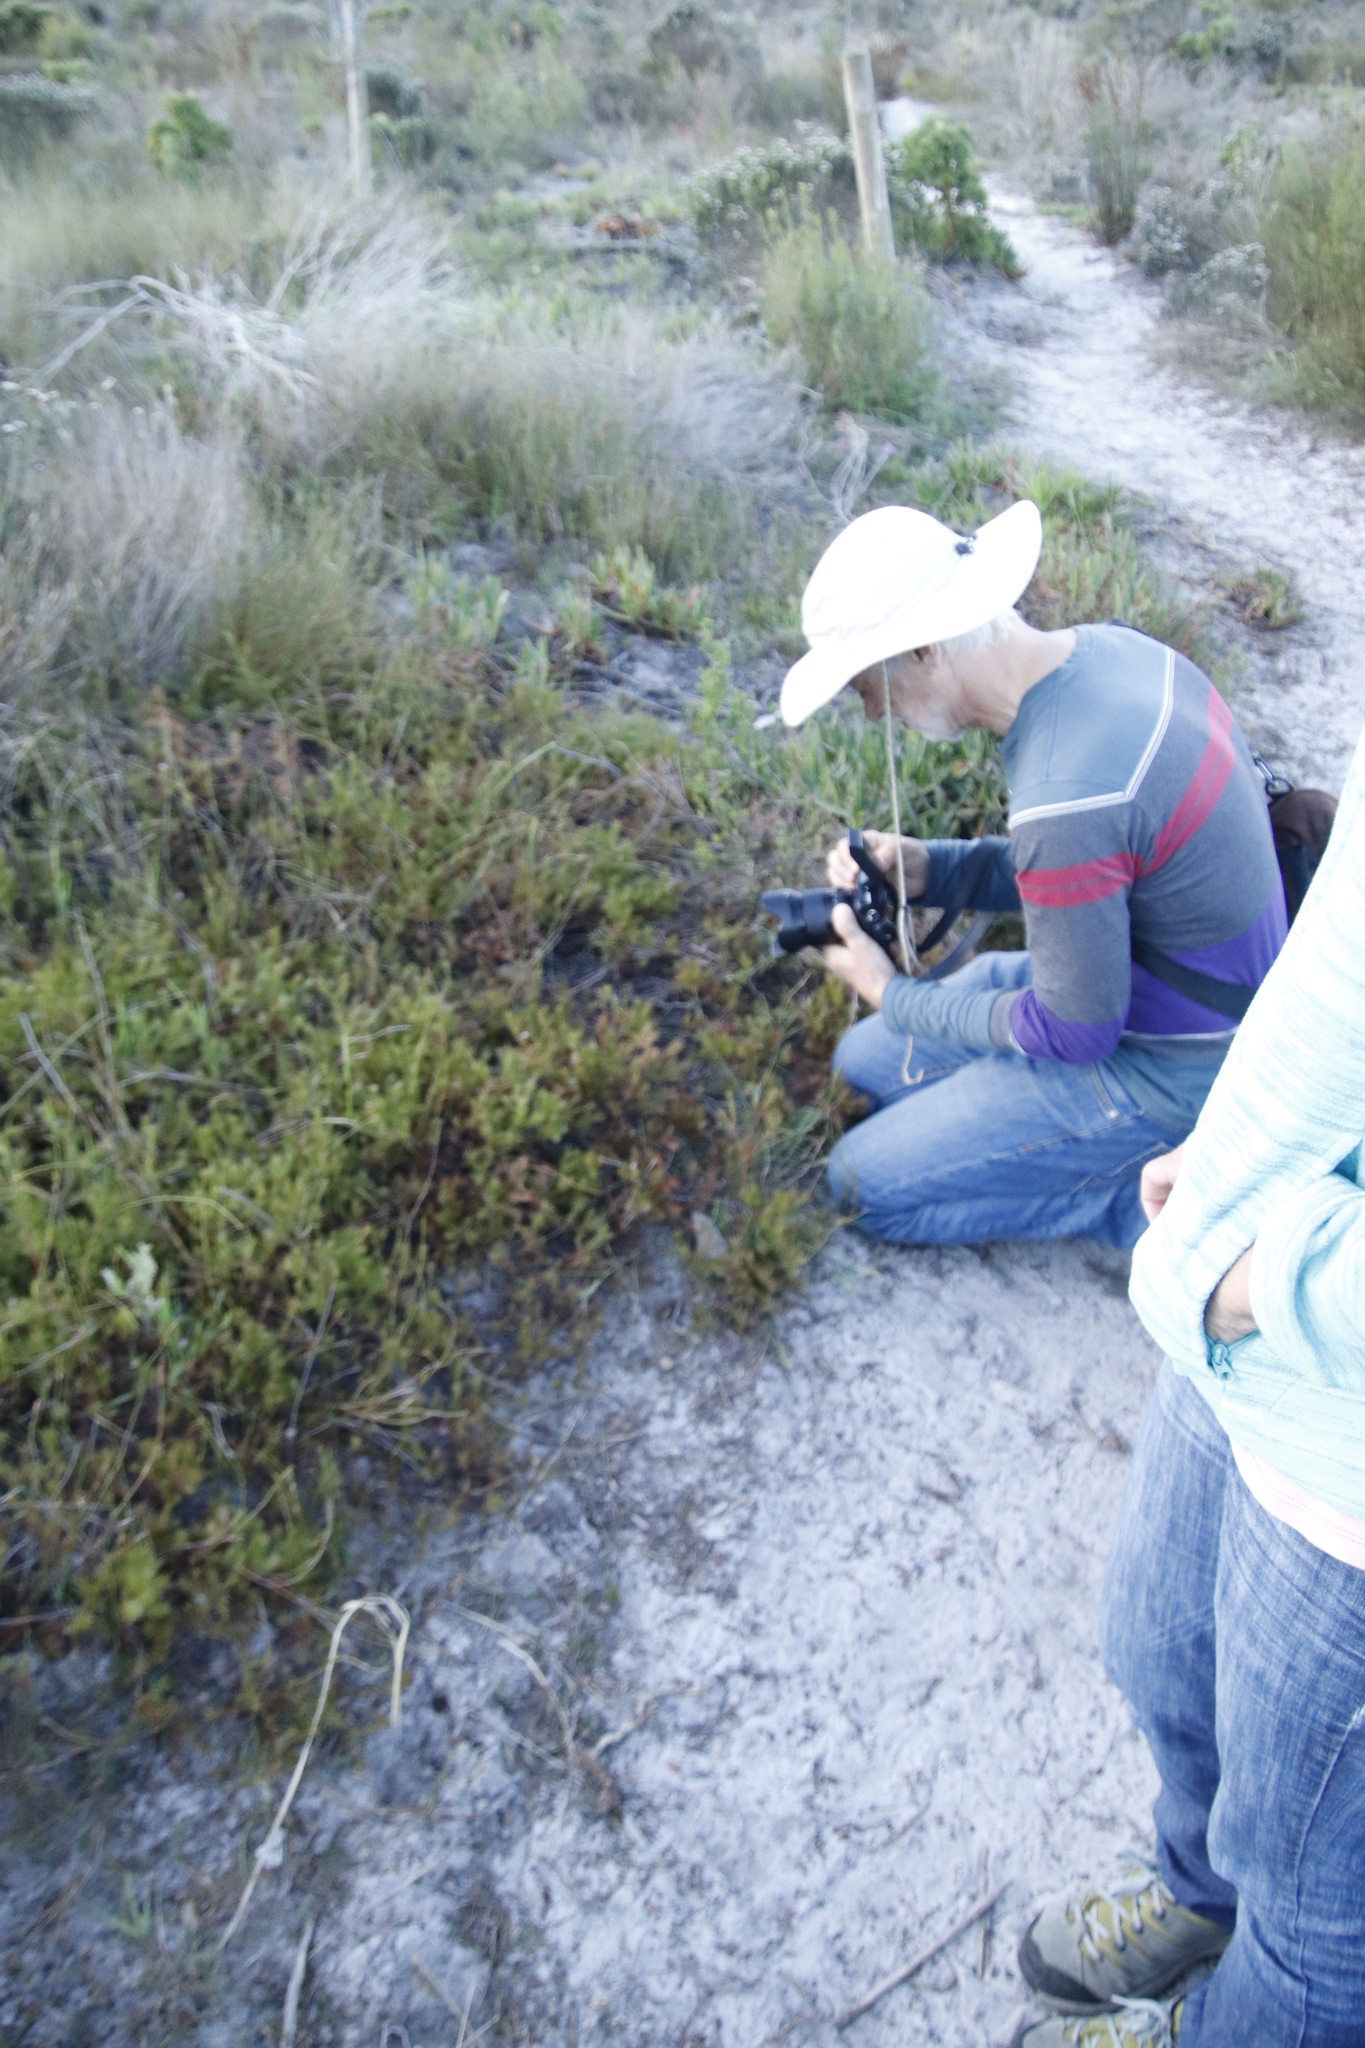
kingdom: Plantae
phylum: Tracheophyta
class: Magnoliopsida
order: Proteales
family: Proteaceae
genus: Diastella
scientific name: Diastella proteoides
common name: Flats silkypuff
